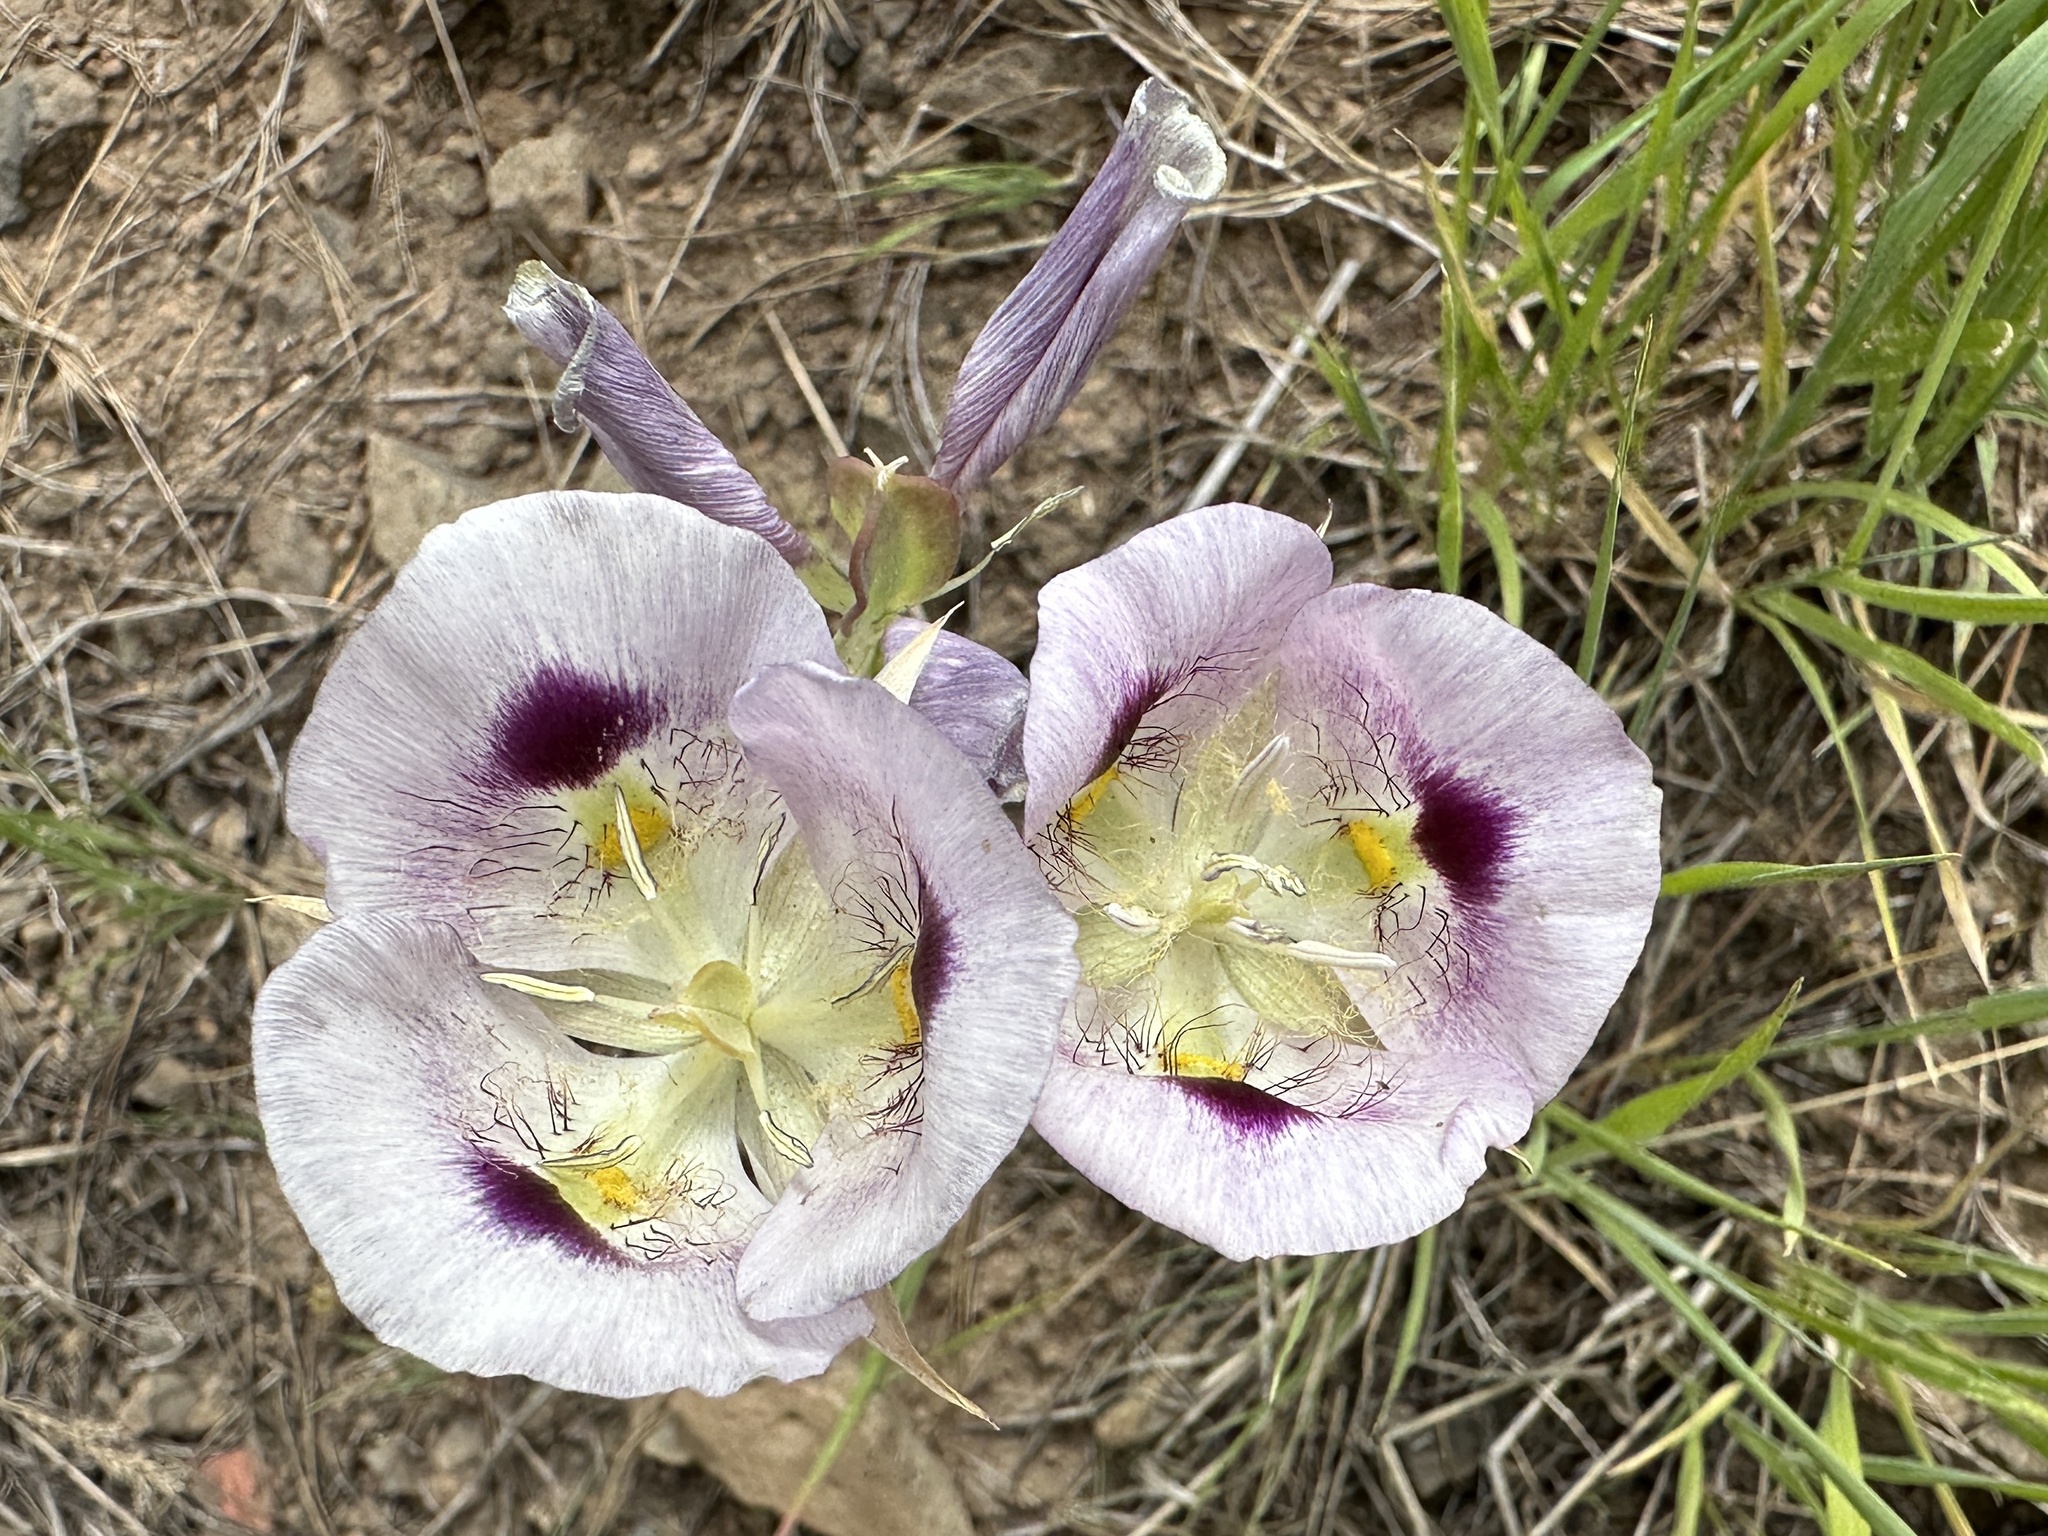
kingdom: Plantae
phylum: Tracheophyta
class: Liliopsida
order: Liliales
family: Liliaceae
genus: Calochortus
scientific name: Calochortus eurycarpus
